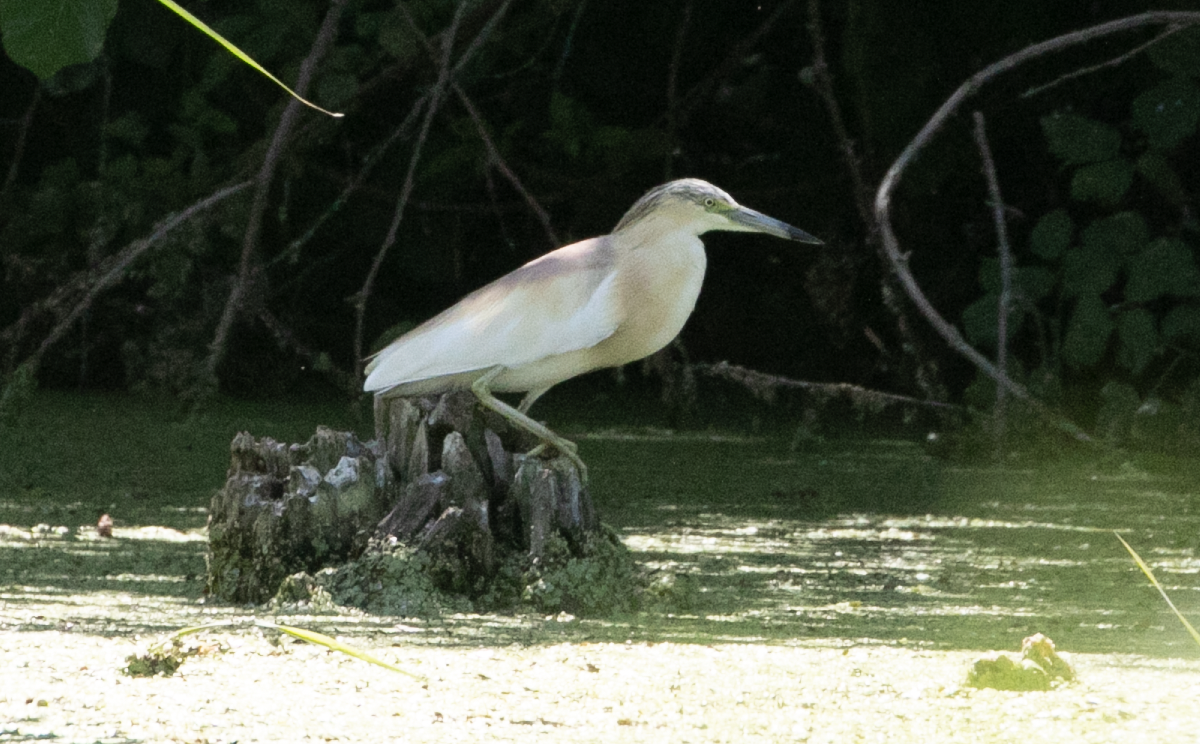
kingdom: Animalia
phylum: Chordata
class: Aves
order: Pelecaniformes
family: Ardeidae
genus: Ardeola
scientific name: Ardeola ralloides
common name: Squacco heron
